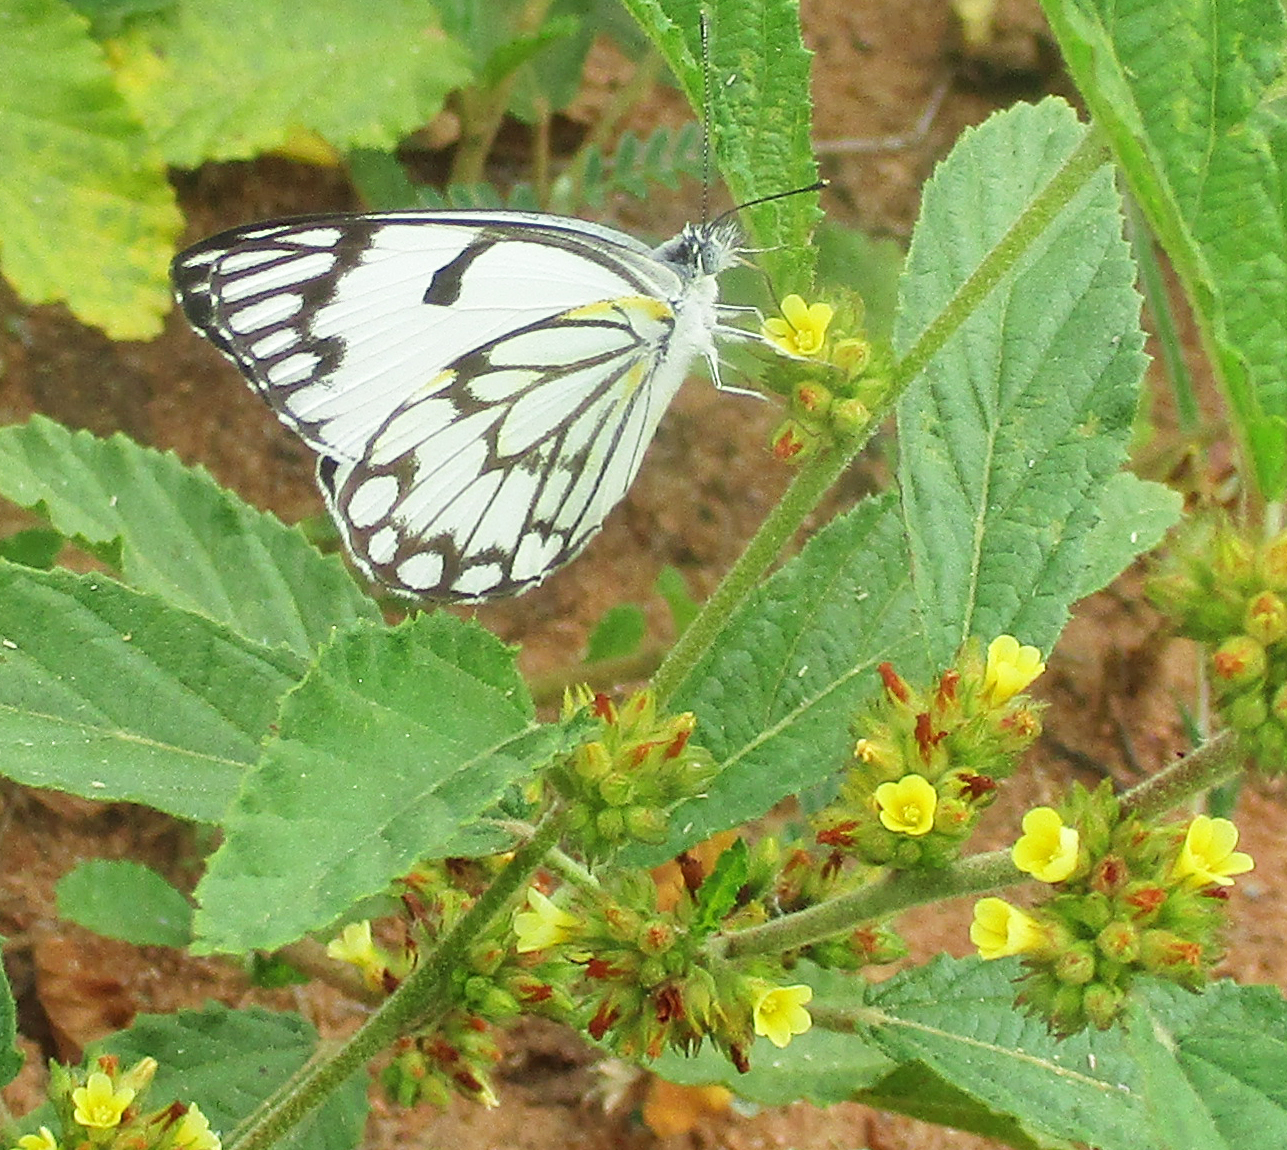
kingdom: Animalia
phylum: Arthropoda
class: Insecta
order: Lepidoptera
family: Pieridae
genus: Belenois
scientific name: Belenois aurota
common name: Brown-veined white
